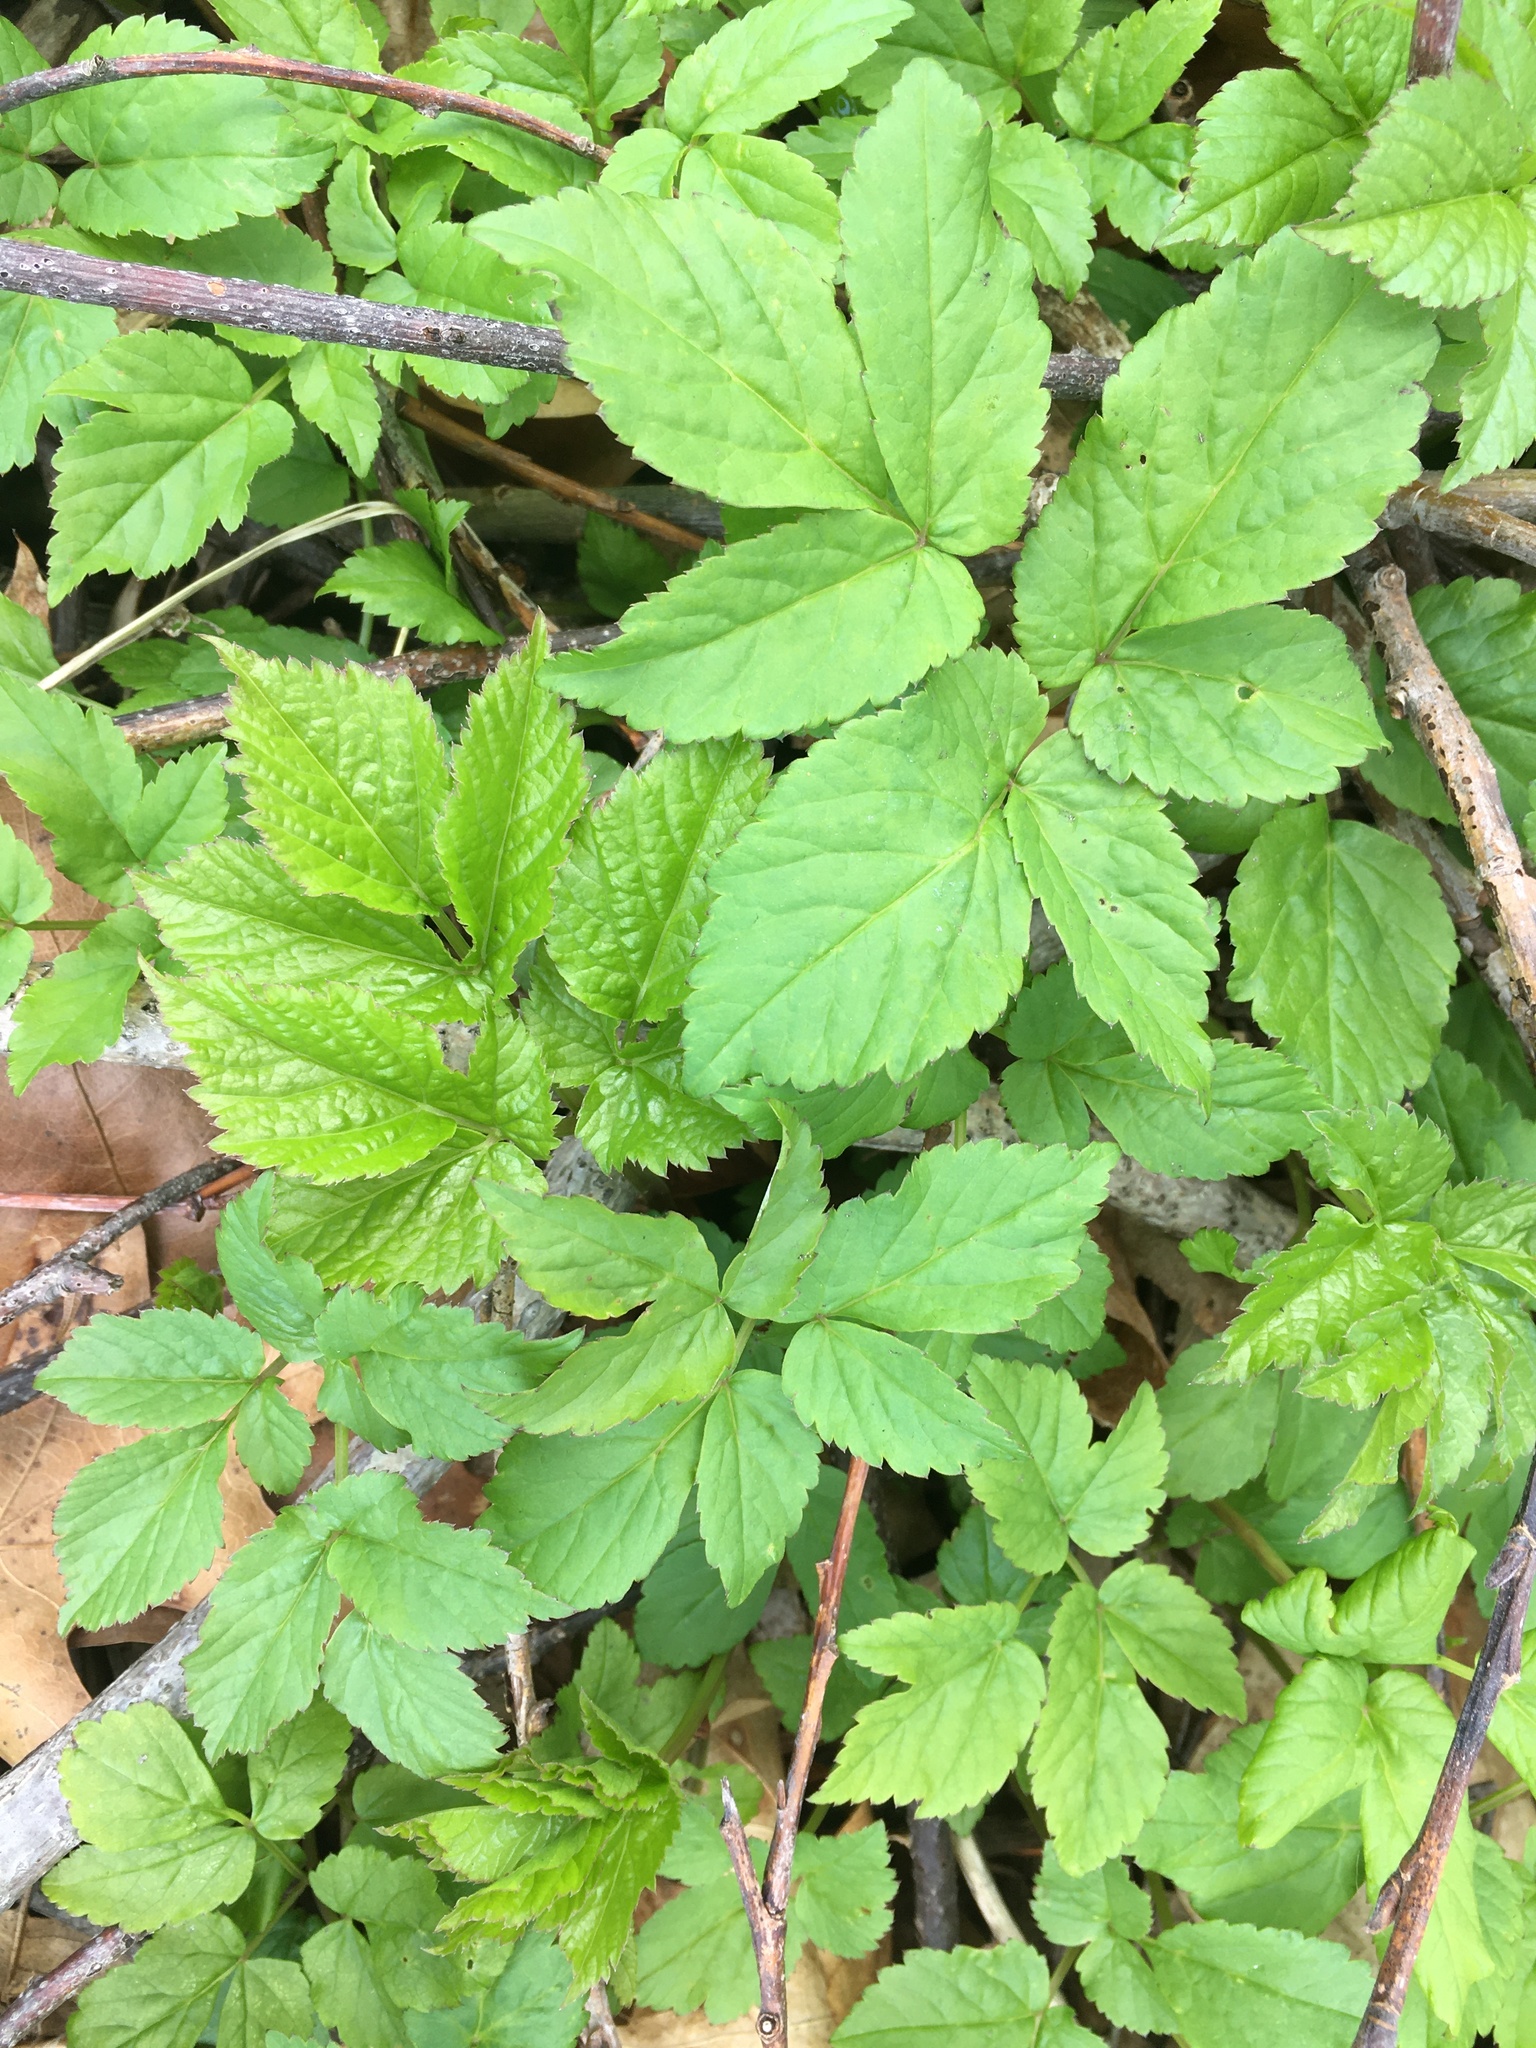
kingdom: Plantae
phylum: Tracheophyta
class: Magnoliopsida
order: Apiales
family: Apiaceae
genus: Aegopodium
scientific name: Aegopodium podagraria
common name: Ground-elder
